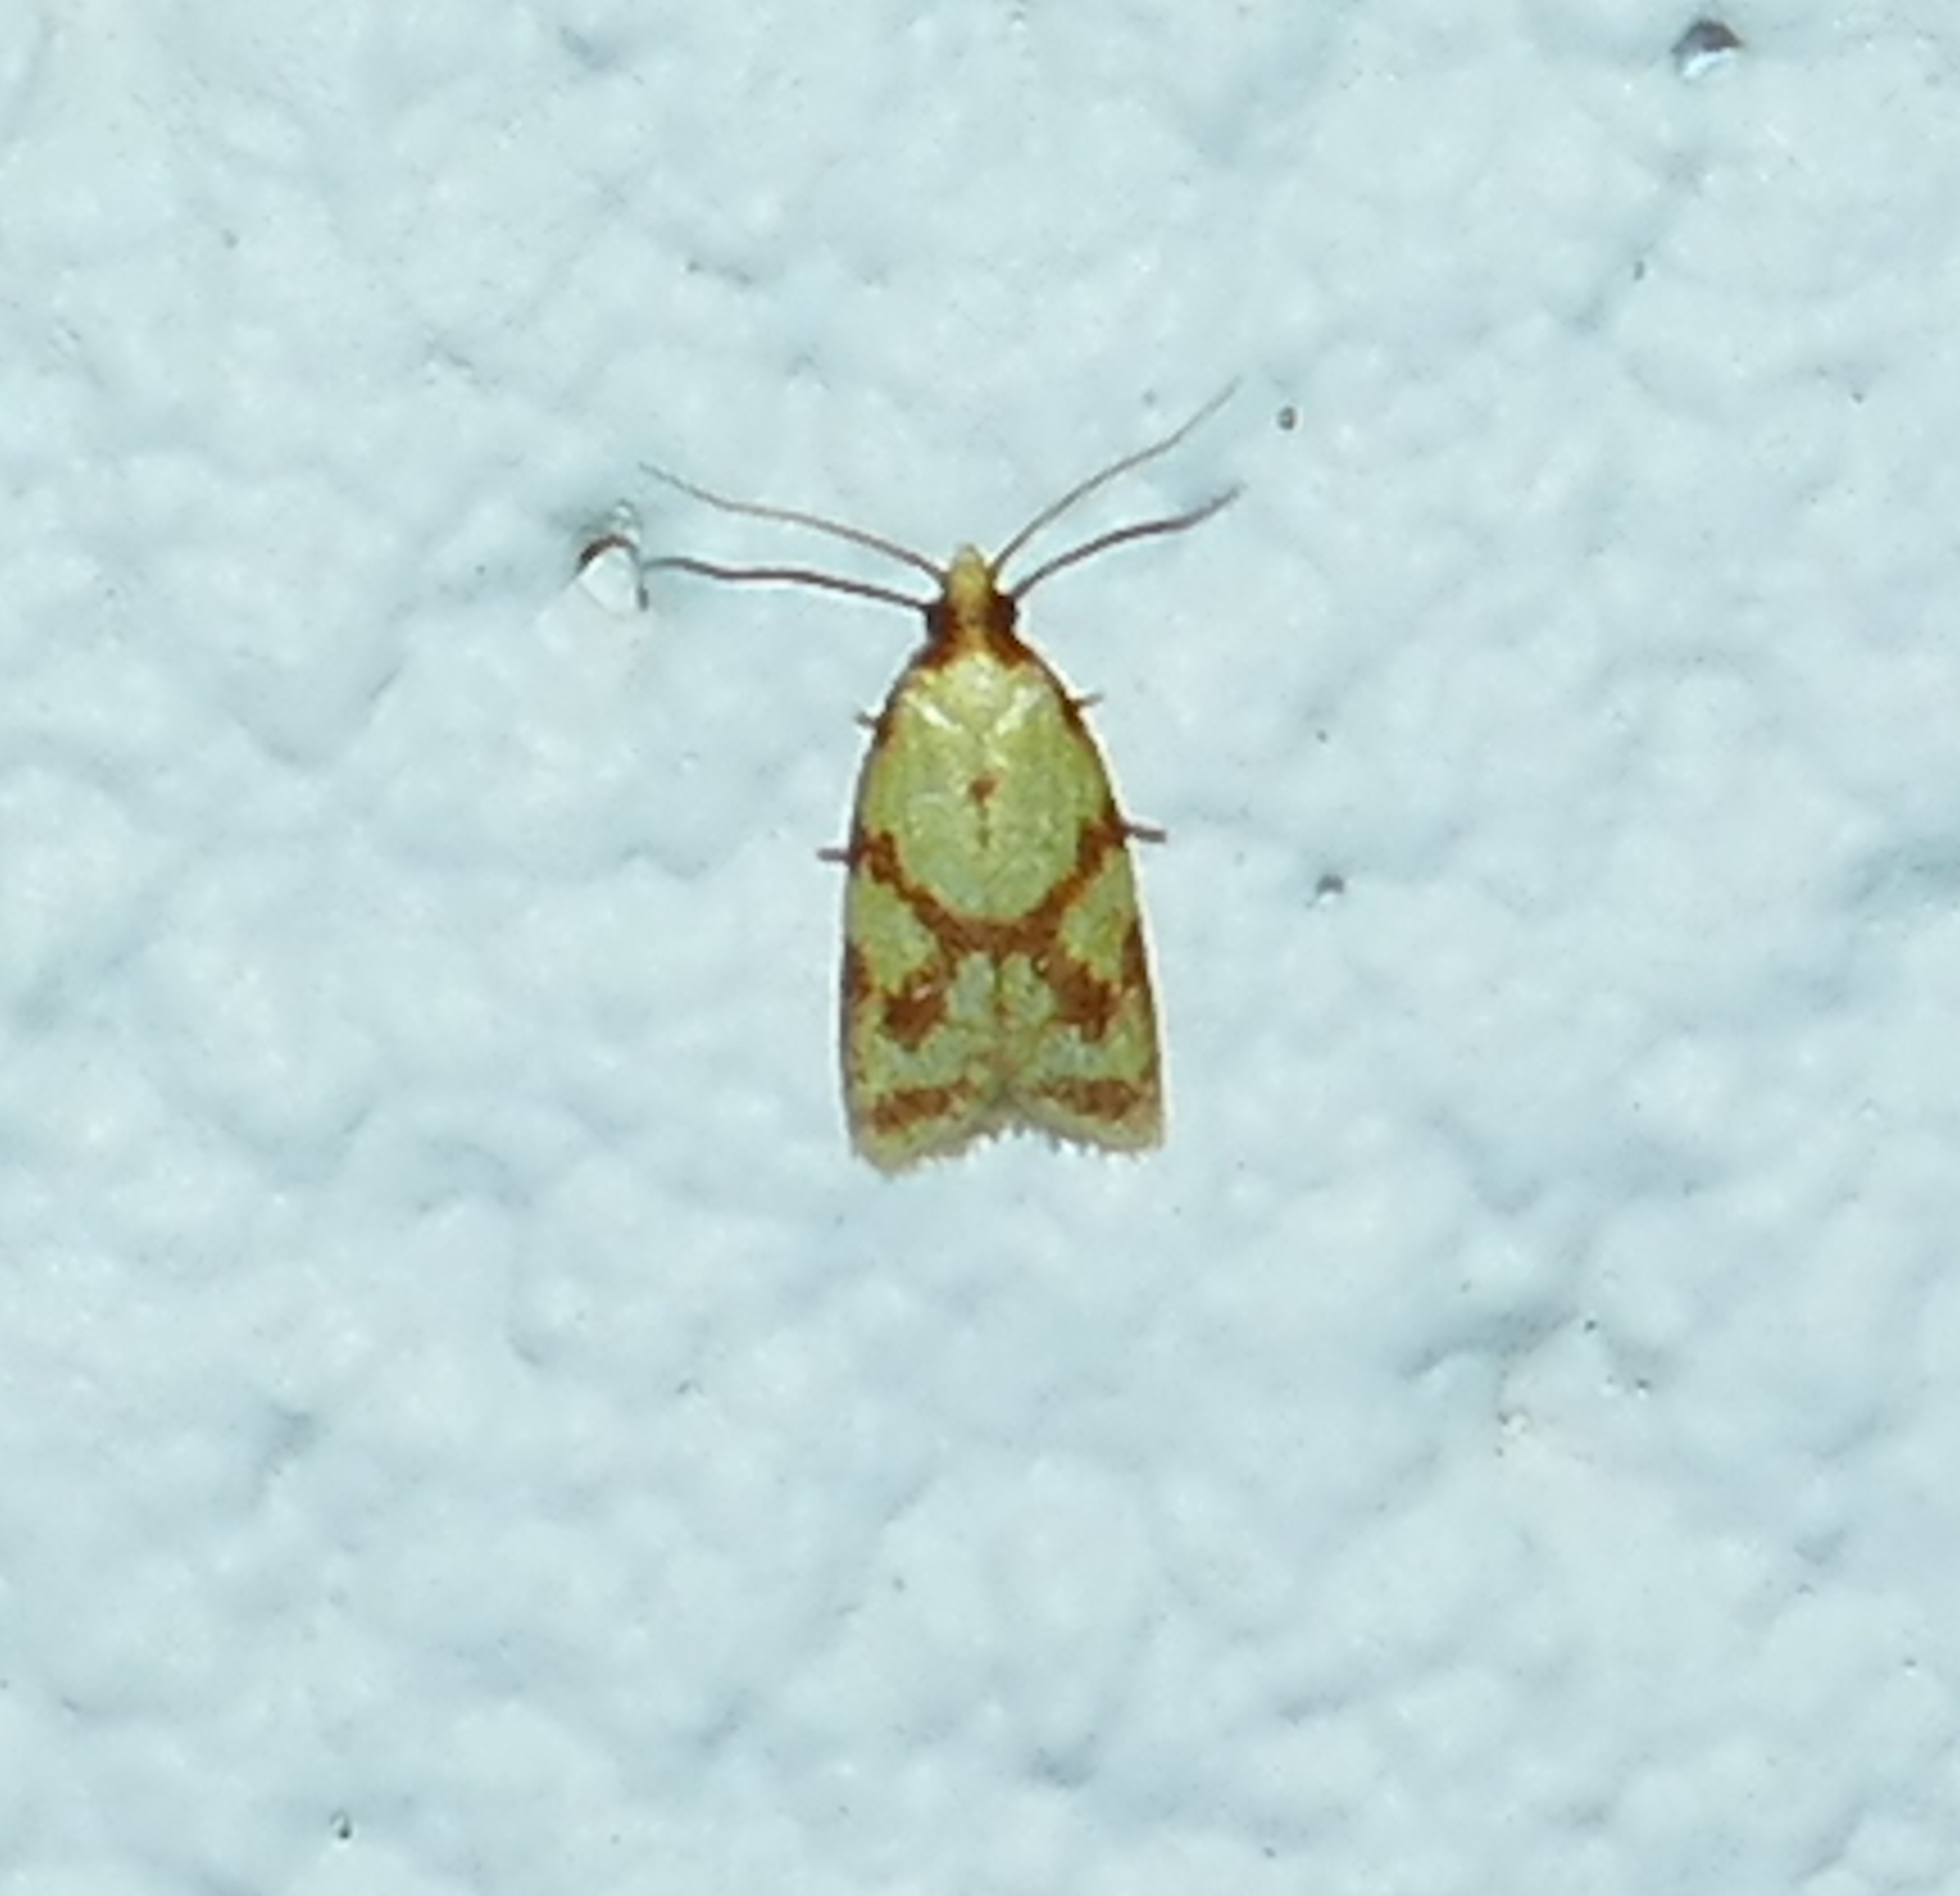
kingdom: Animalia
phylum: Arthropoda
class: Insecta
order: Lepidoptera
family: Tortricidae
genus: Sparganothis
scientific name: Sparganothis sulfureana
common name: Sparganothis fruitworm moth
